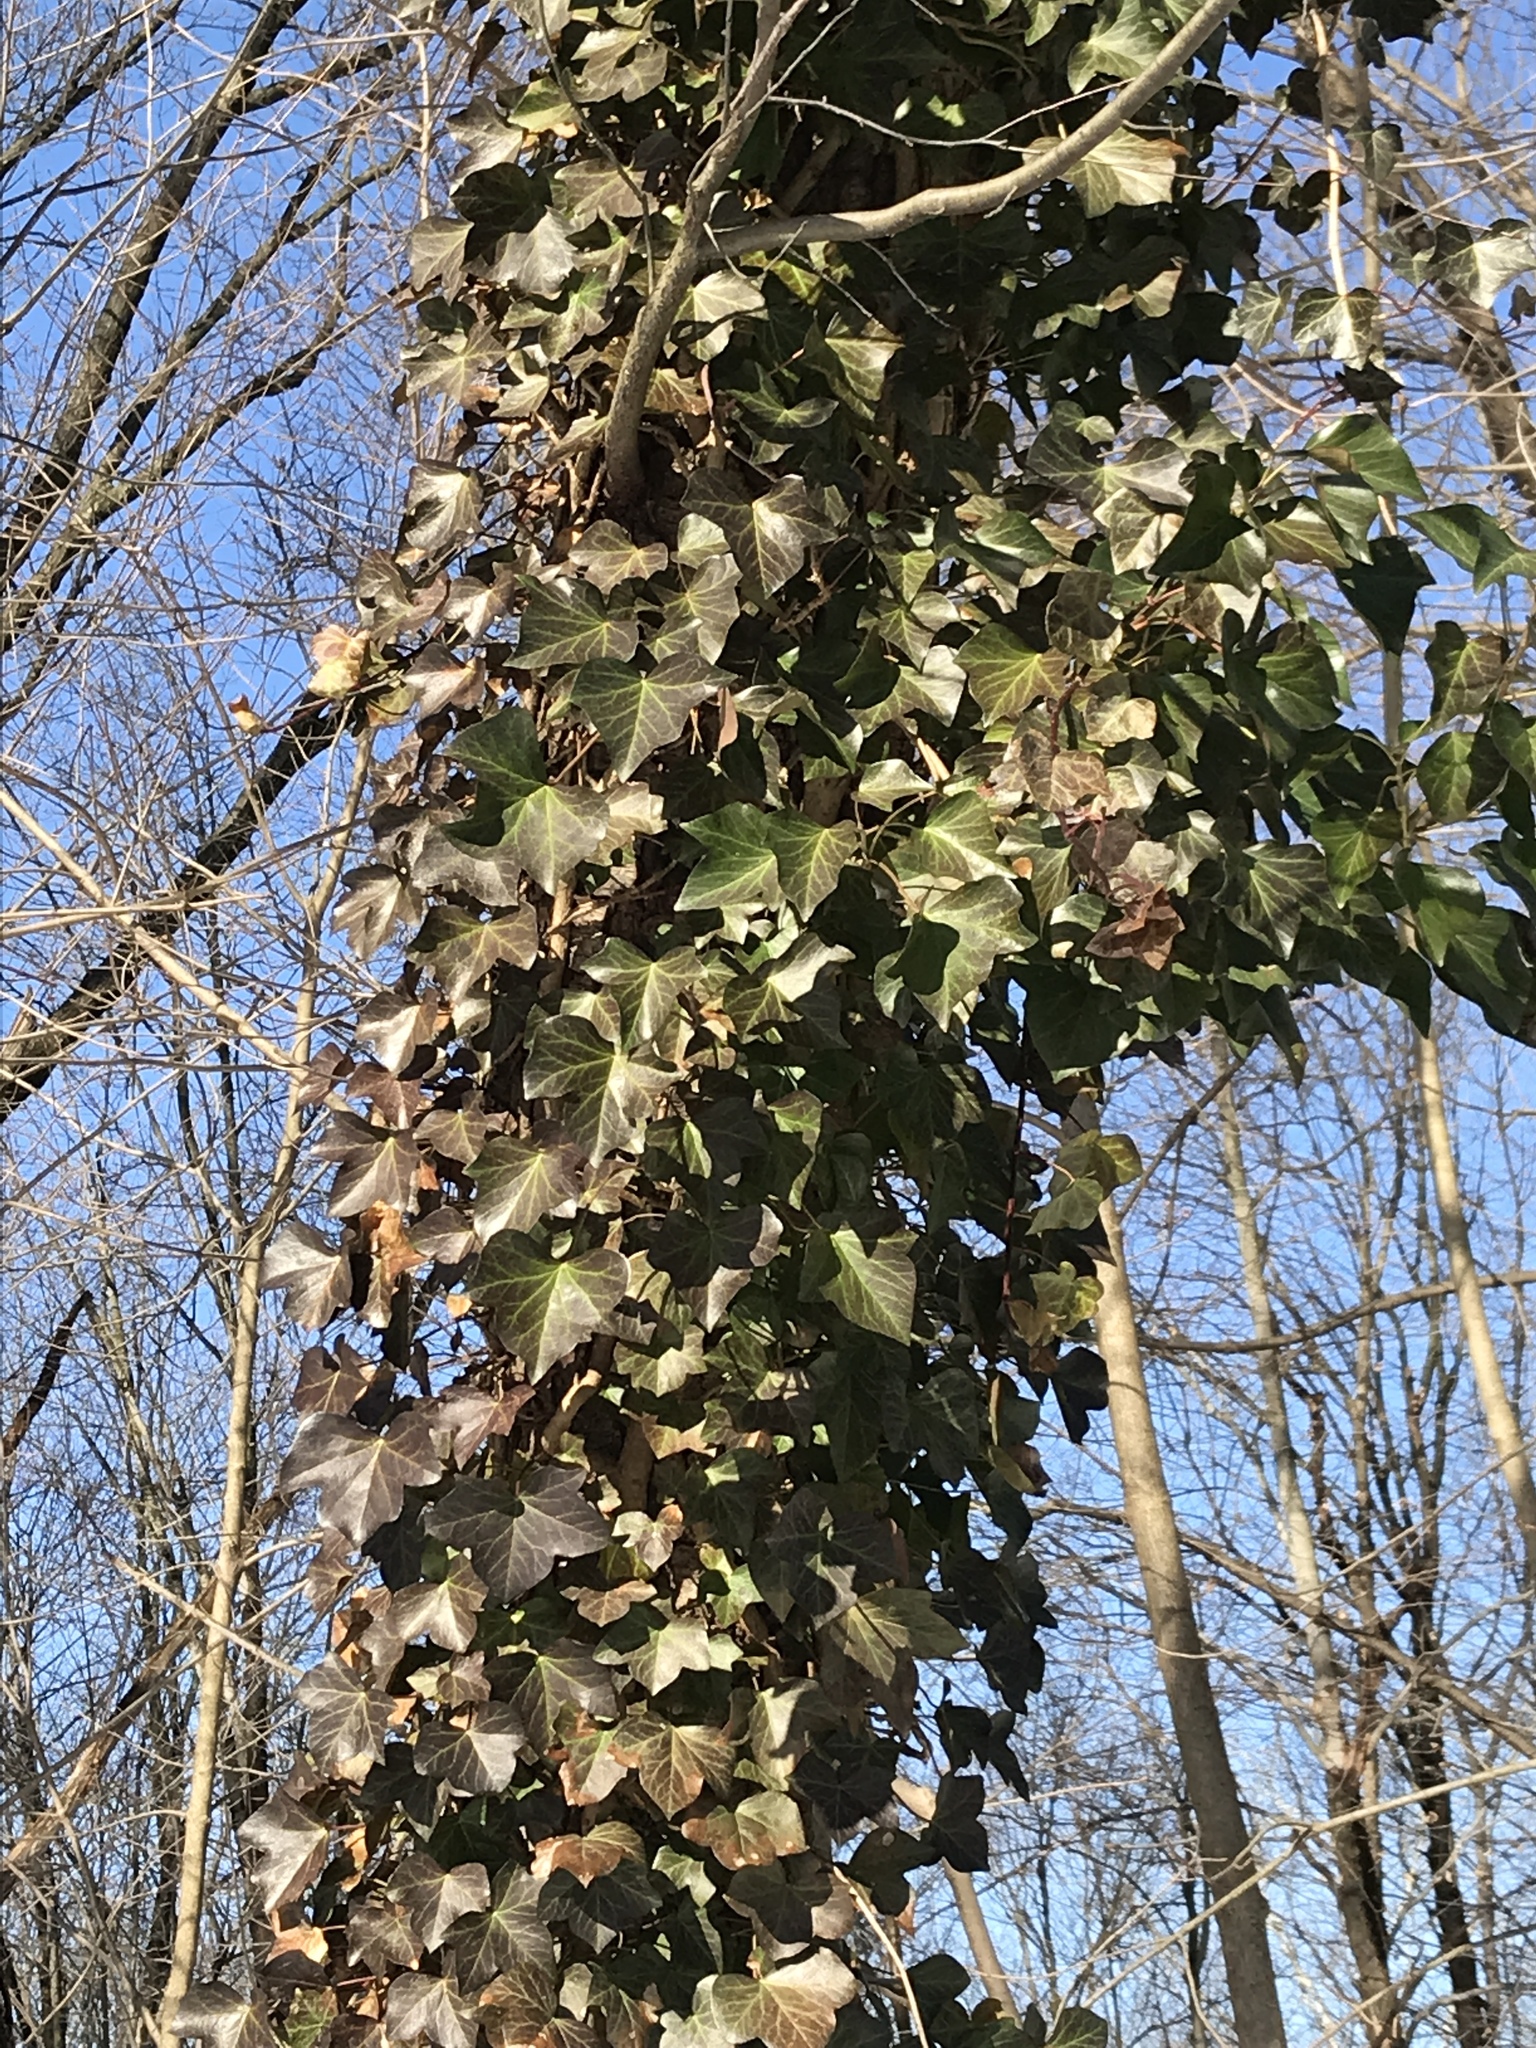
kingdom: Plantae
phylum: Tracheophyta
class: Magnoliopsida
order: Apiales
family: Araliaceae
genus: Hedera
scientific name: Hedera
